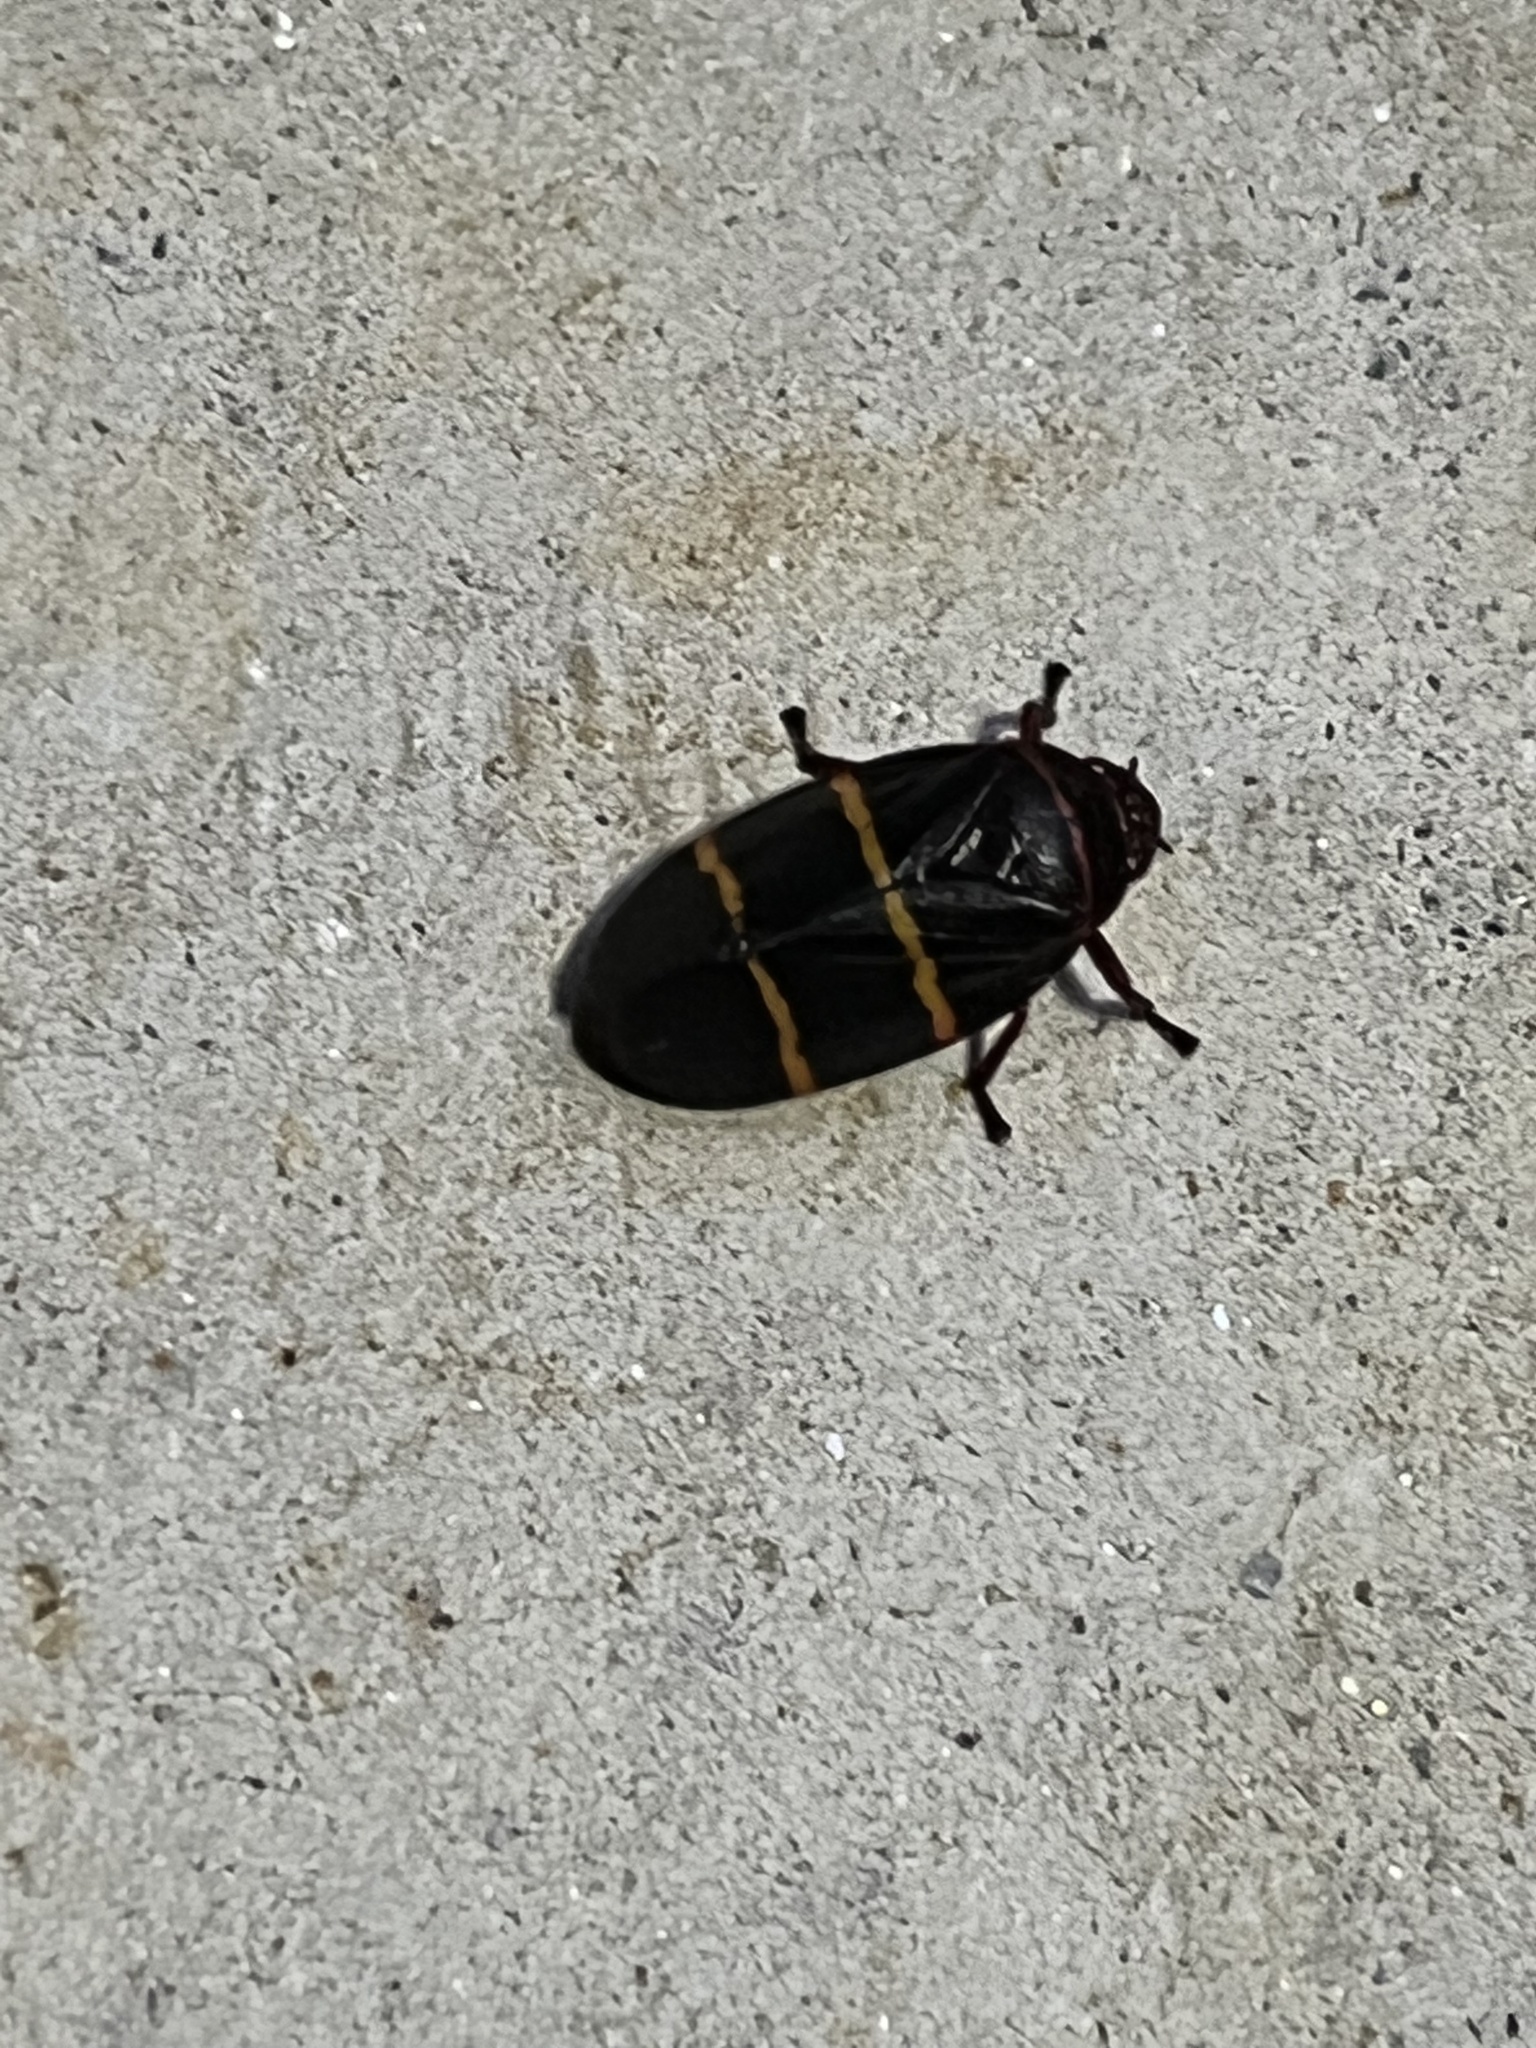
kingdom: Animalia
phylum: Arthropoda
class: Insecta
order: Hemiptera
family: Cercopidae
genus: Prosapia
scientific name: Prosapia bicincta
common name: Twolined spittlebug
